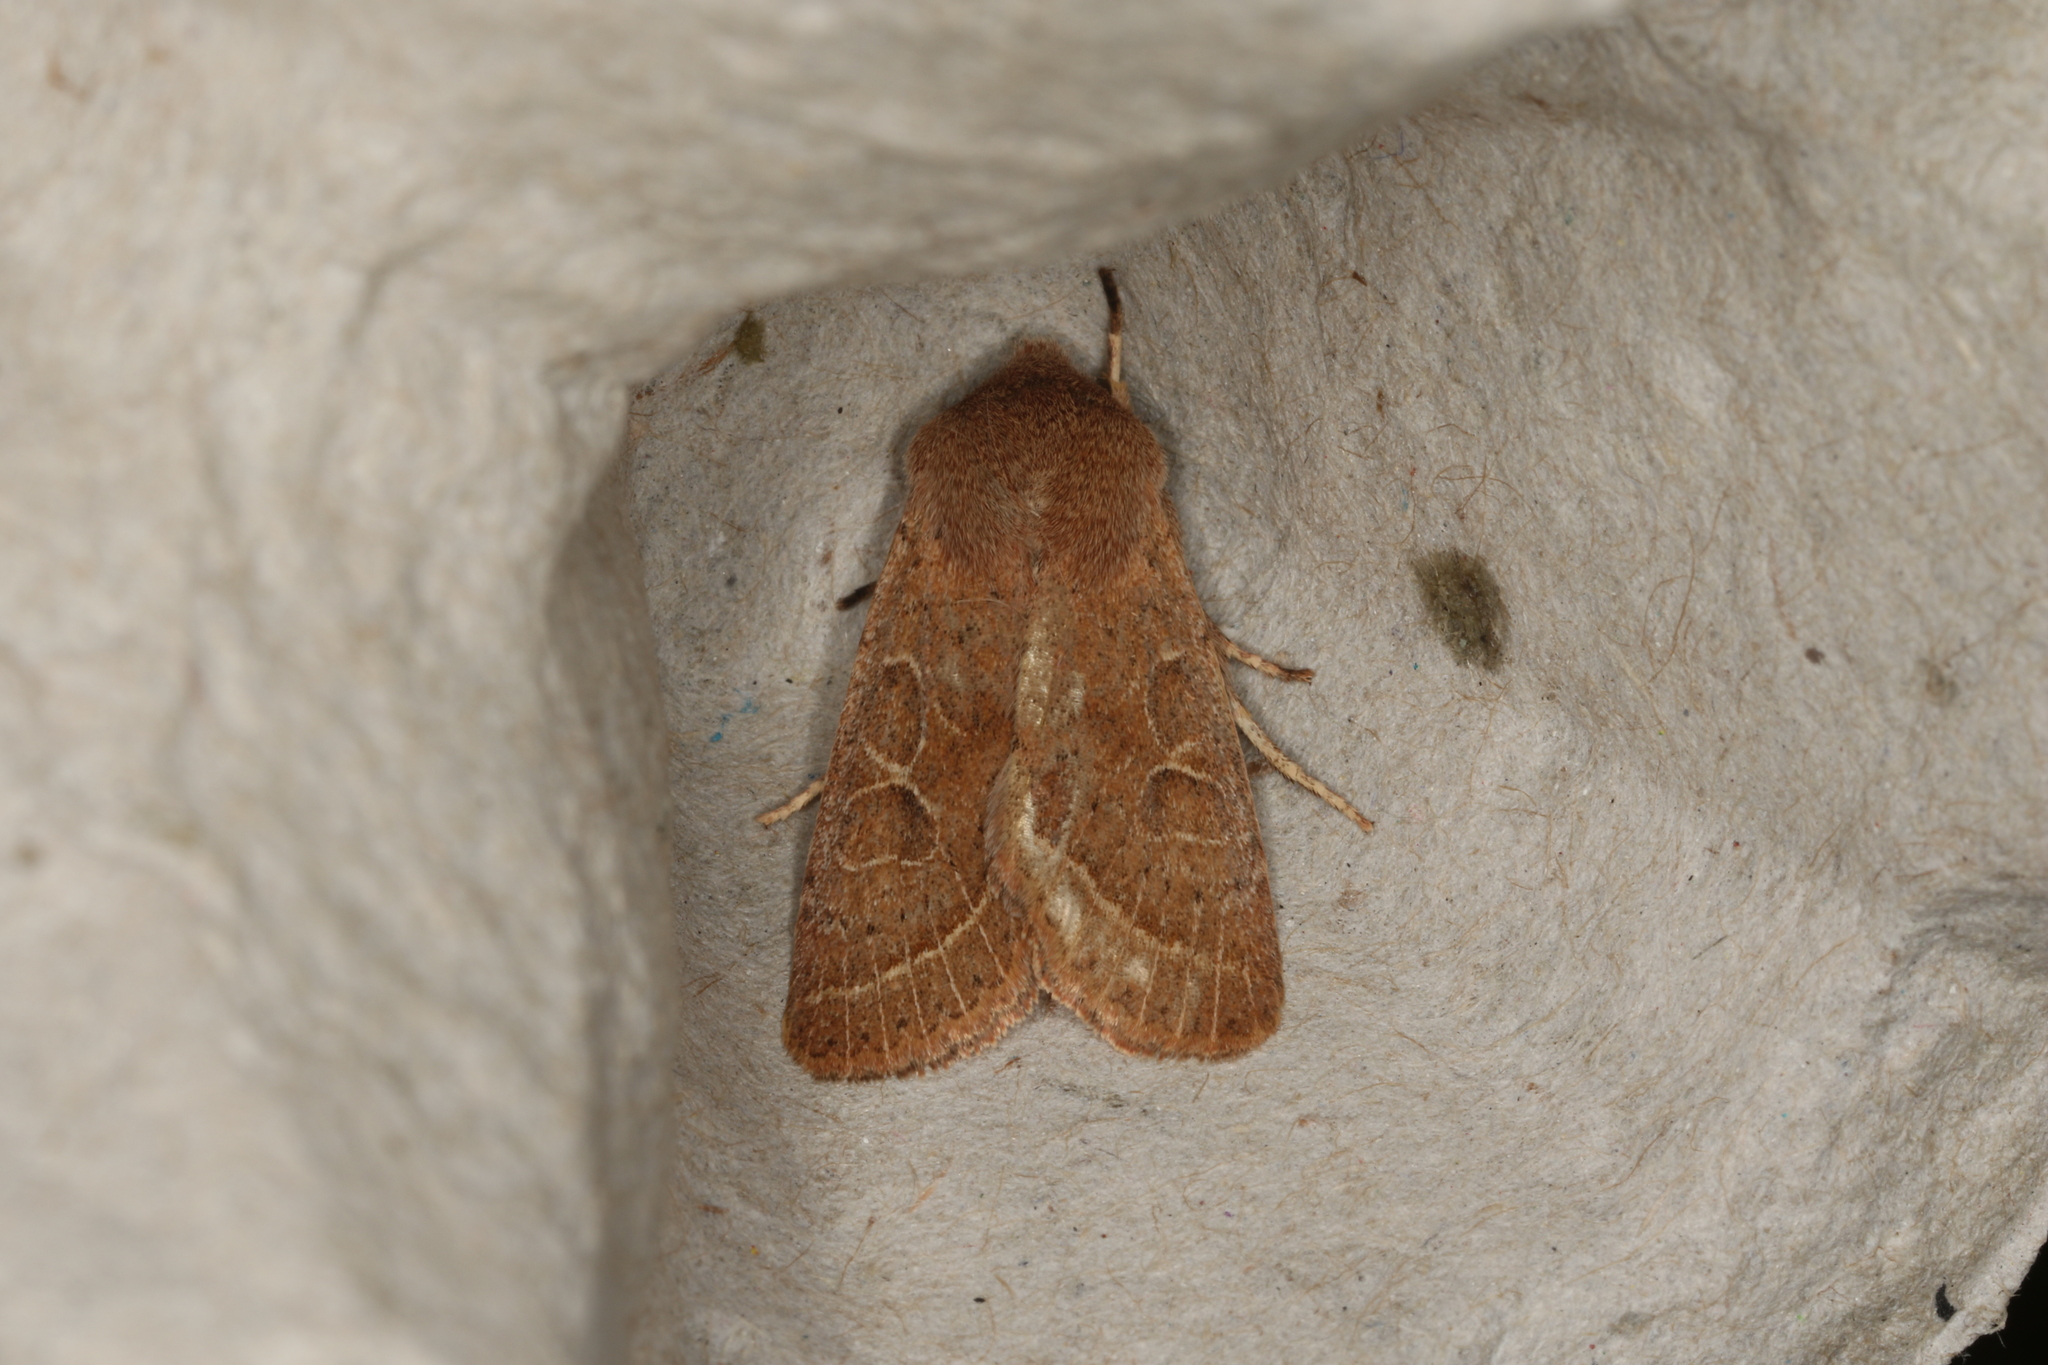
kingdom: Animalia
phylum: Arthropoda
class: Insecta
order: Lepidoptera
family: Noctuidae
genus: Orthosia
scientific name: Orthosia cerasi
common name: Common quaker
